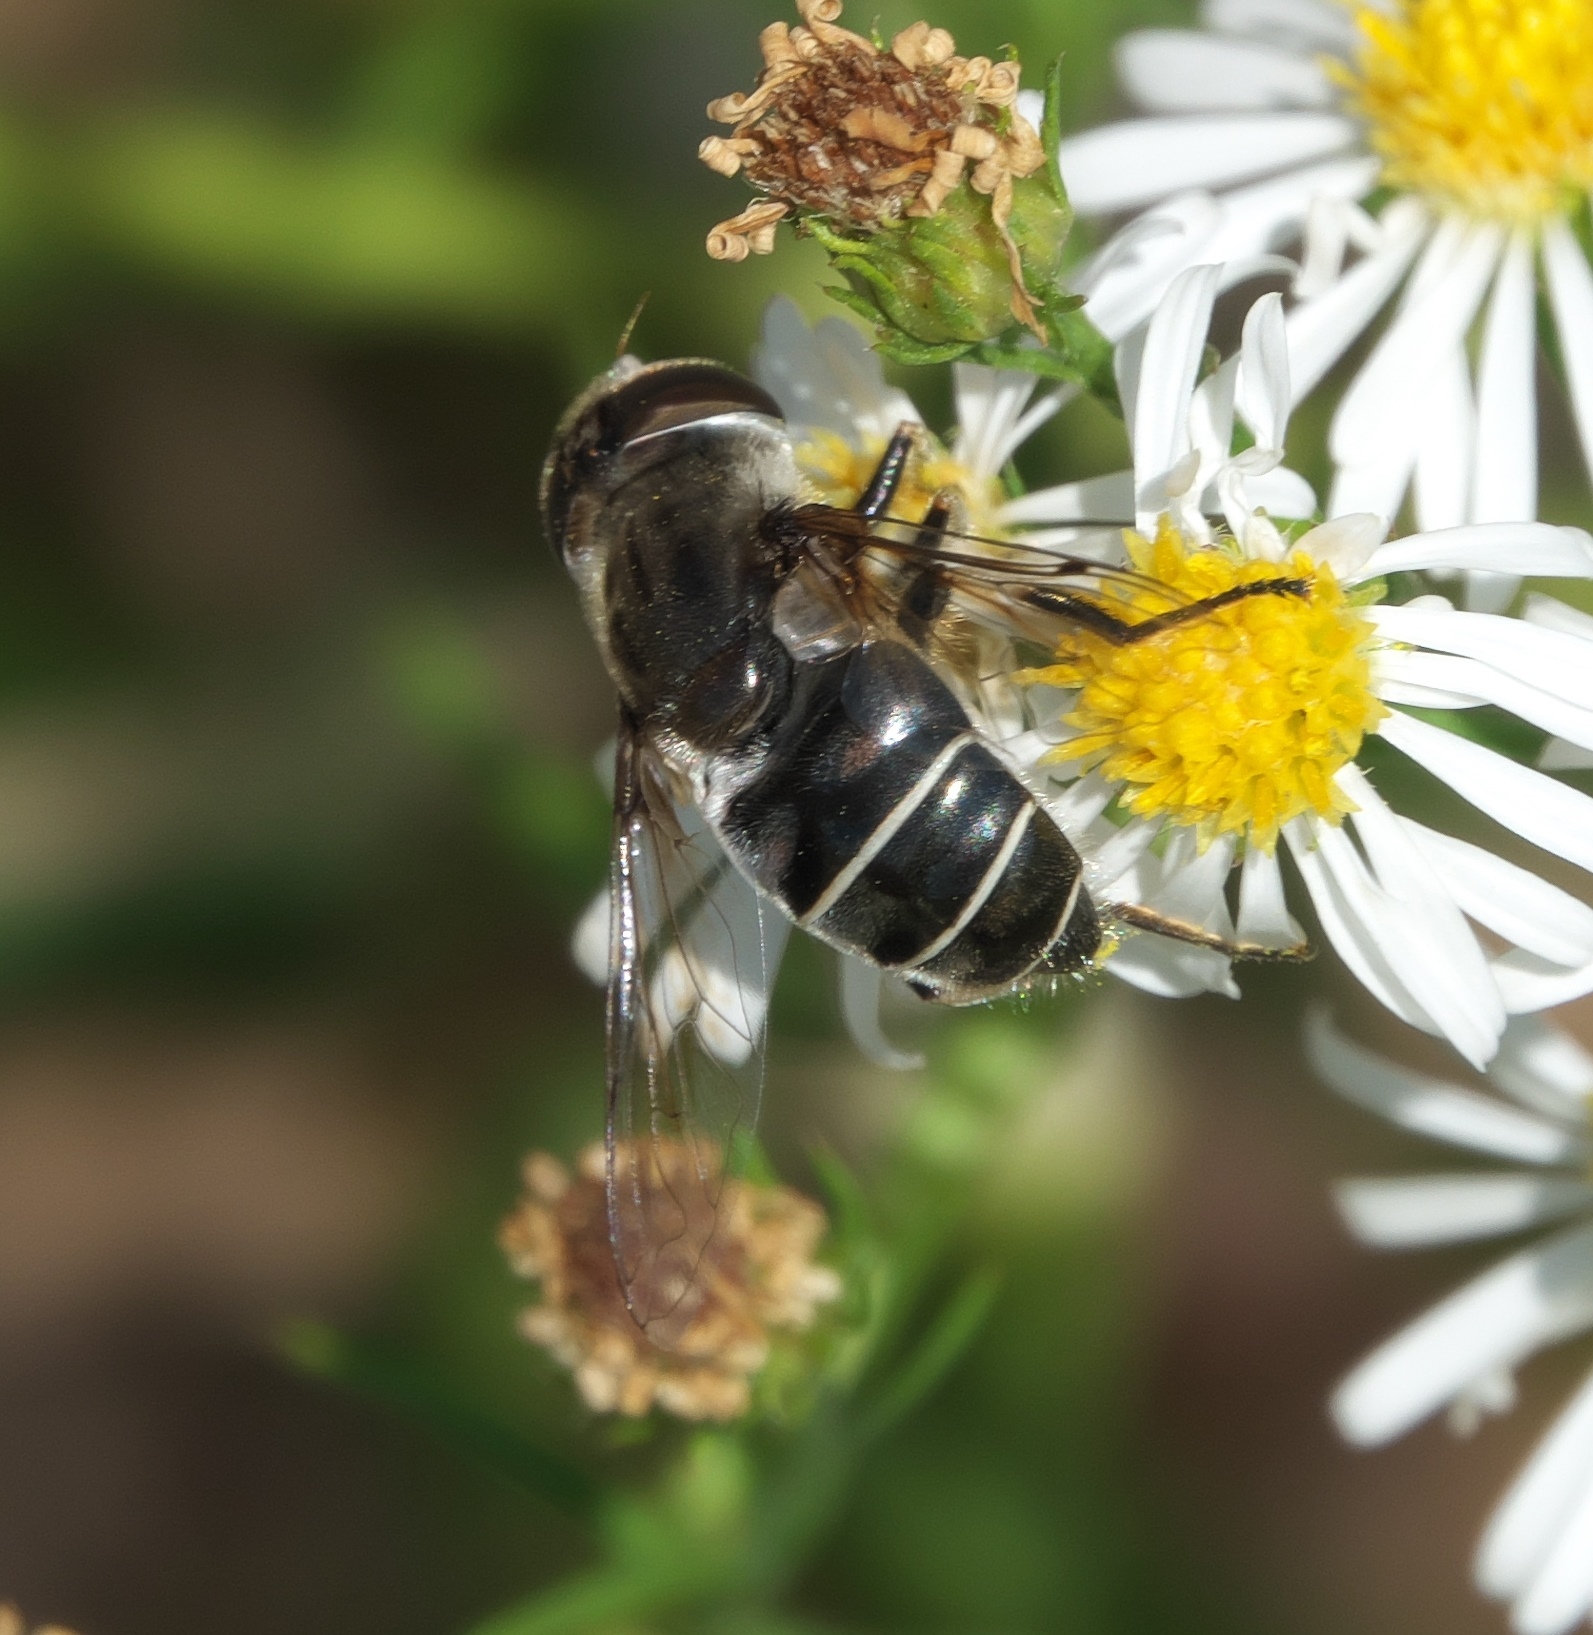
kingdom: Animalia
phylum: Arthropoda
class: Insecta
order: Diptera
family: Syrphidae
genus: Eristalis
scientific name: Eristalis dimidiata
